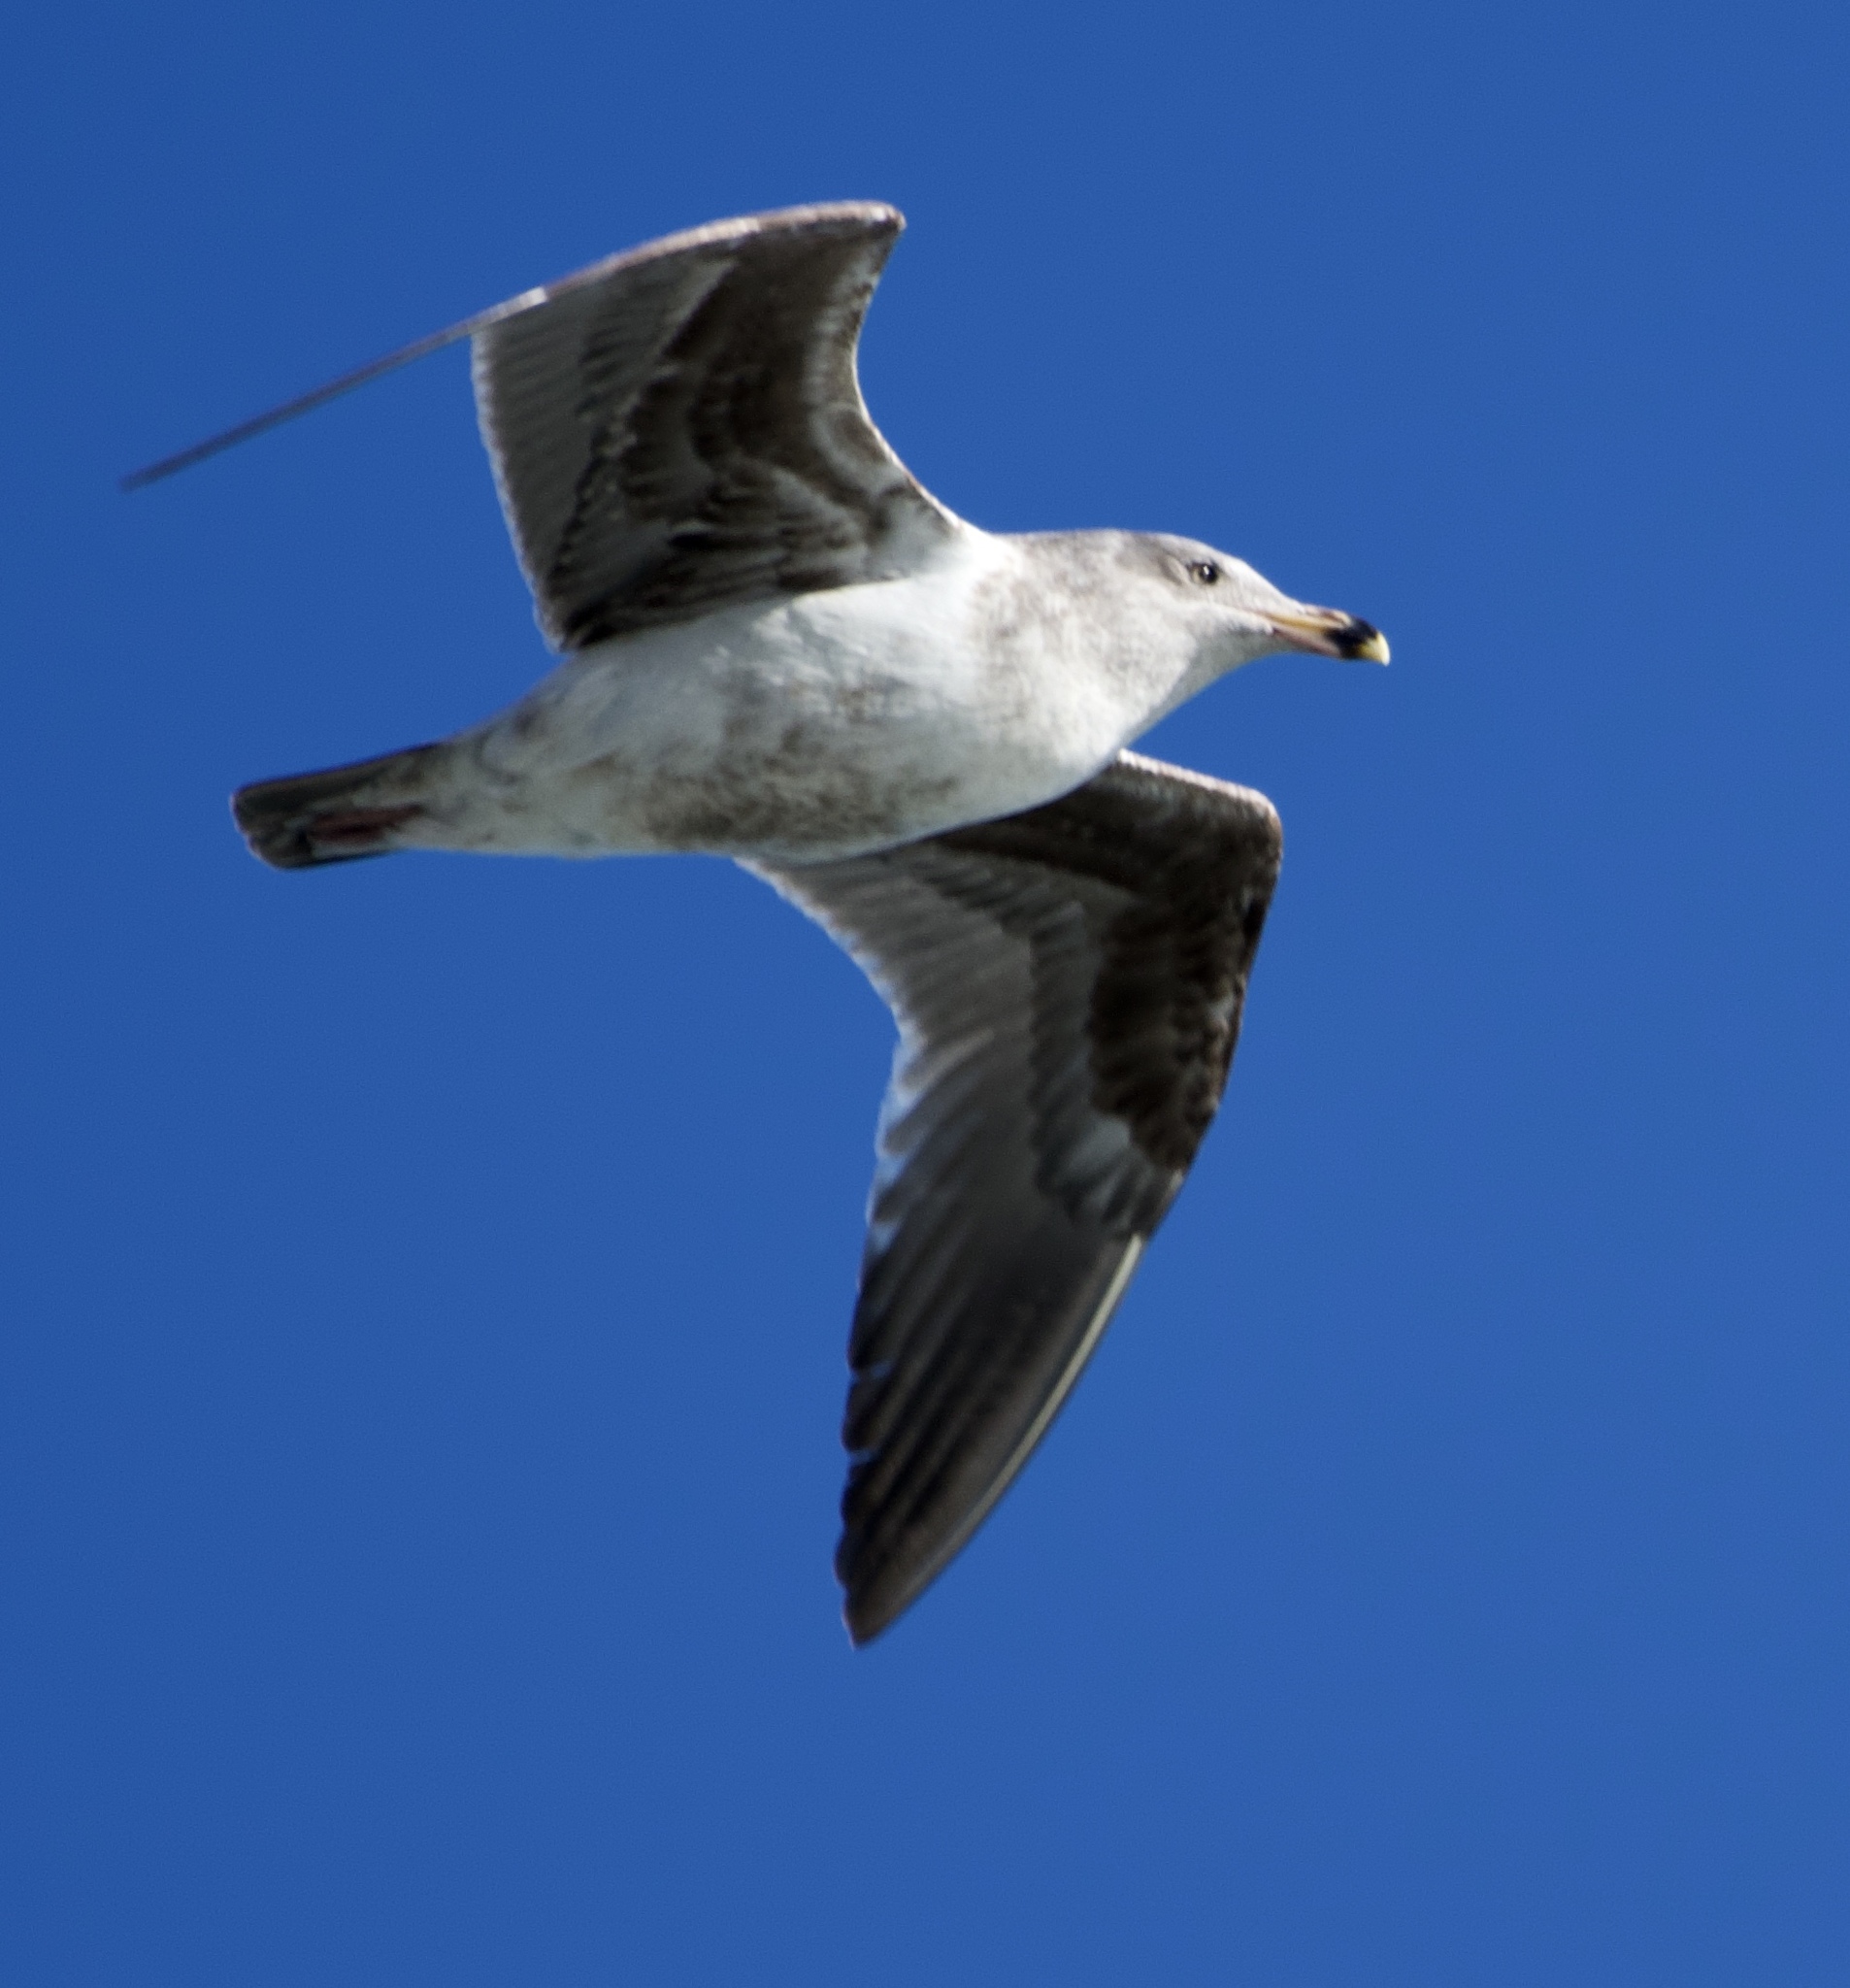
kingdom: Animalia
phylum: Chordata
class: Aves
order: Charadriiformes
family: Laridae
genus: Larus
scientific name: Larus occidentalis
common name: Western gull
